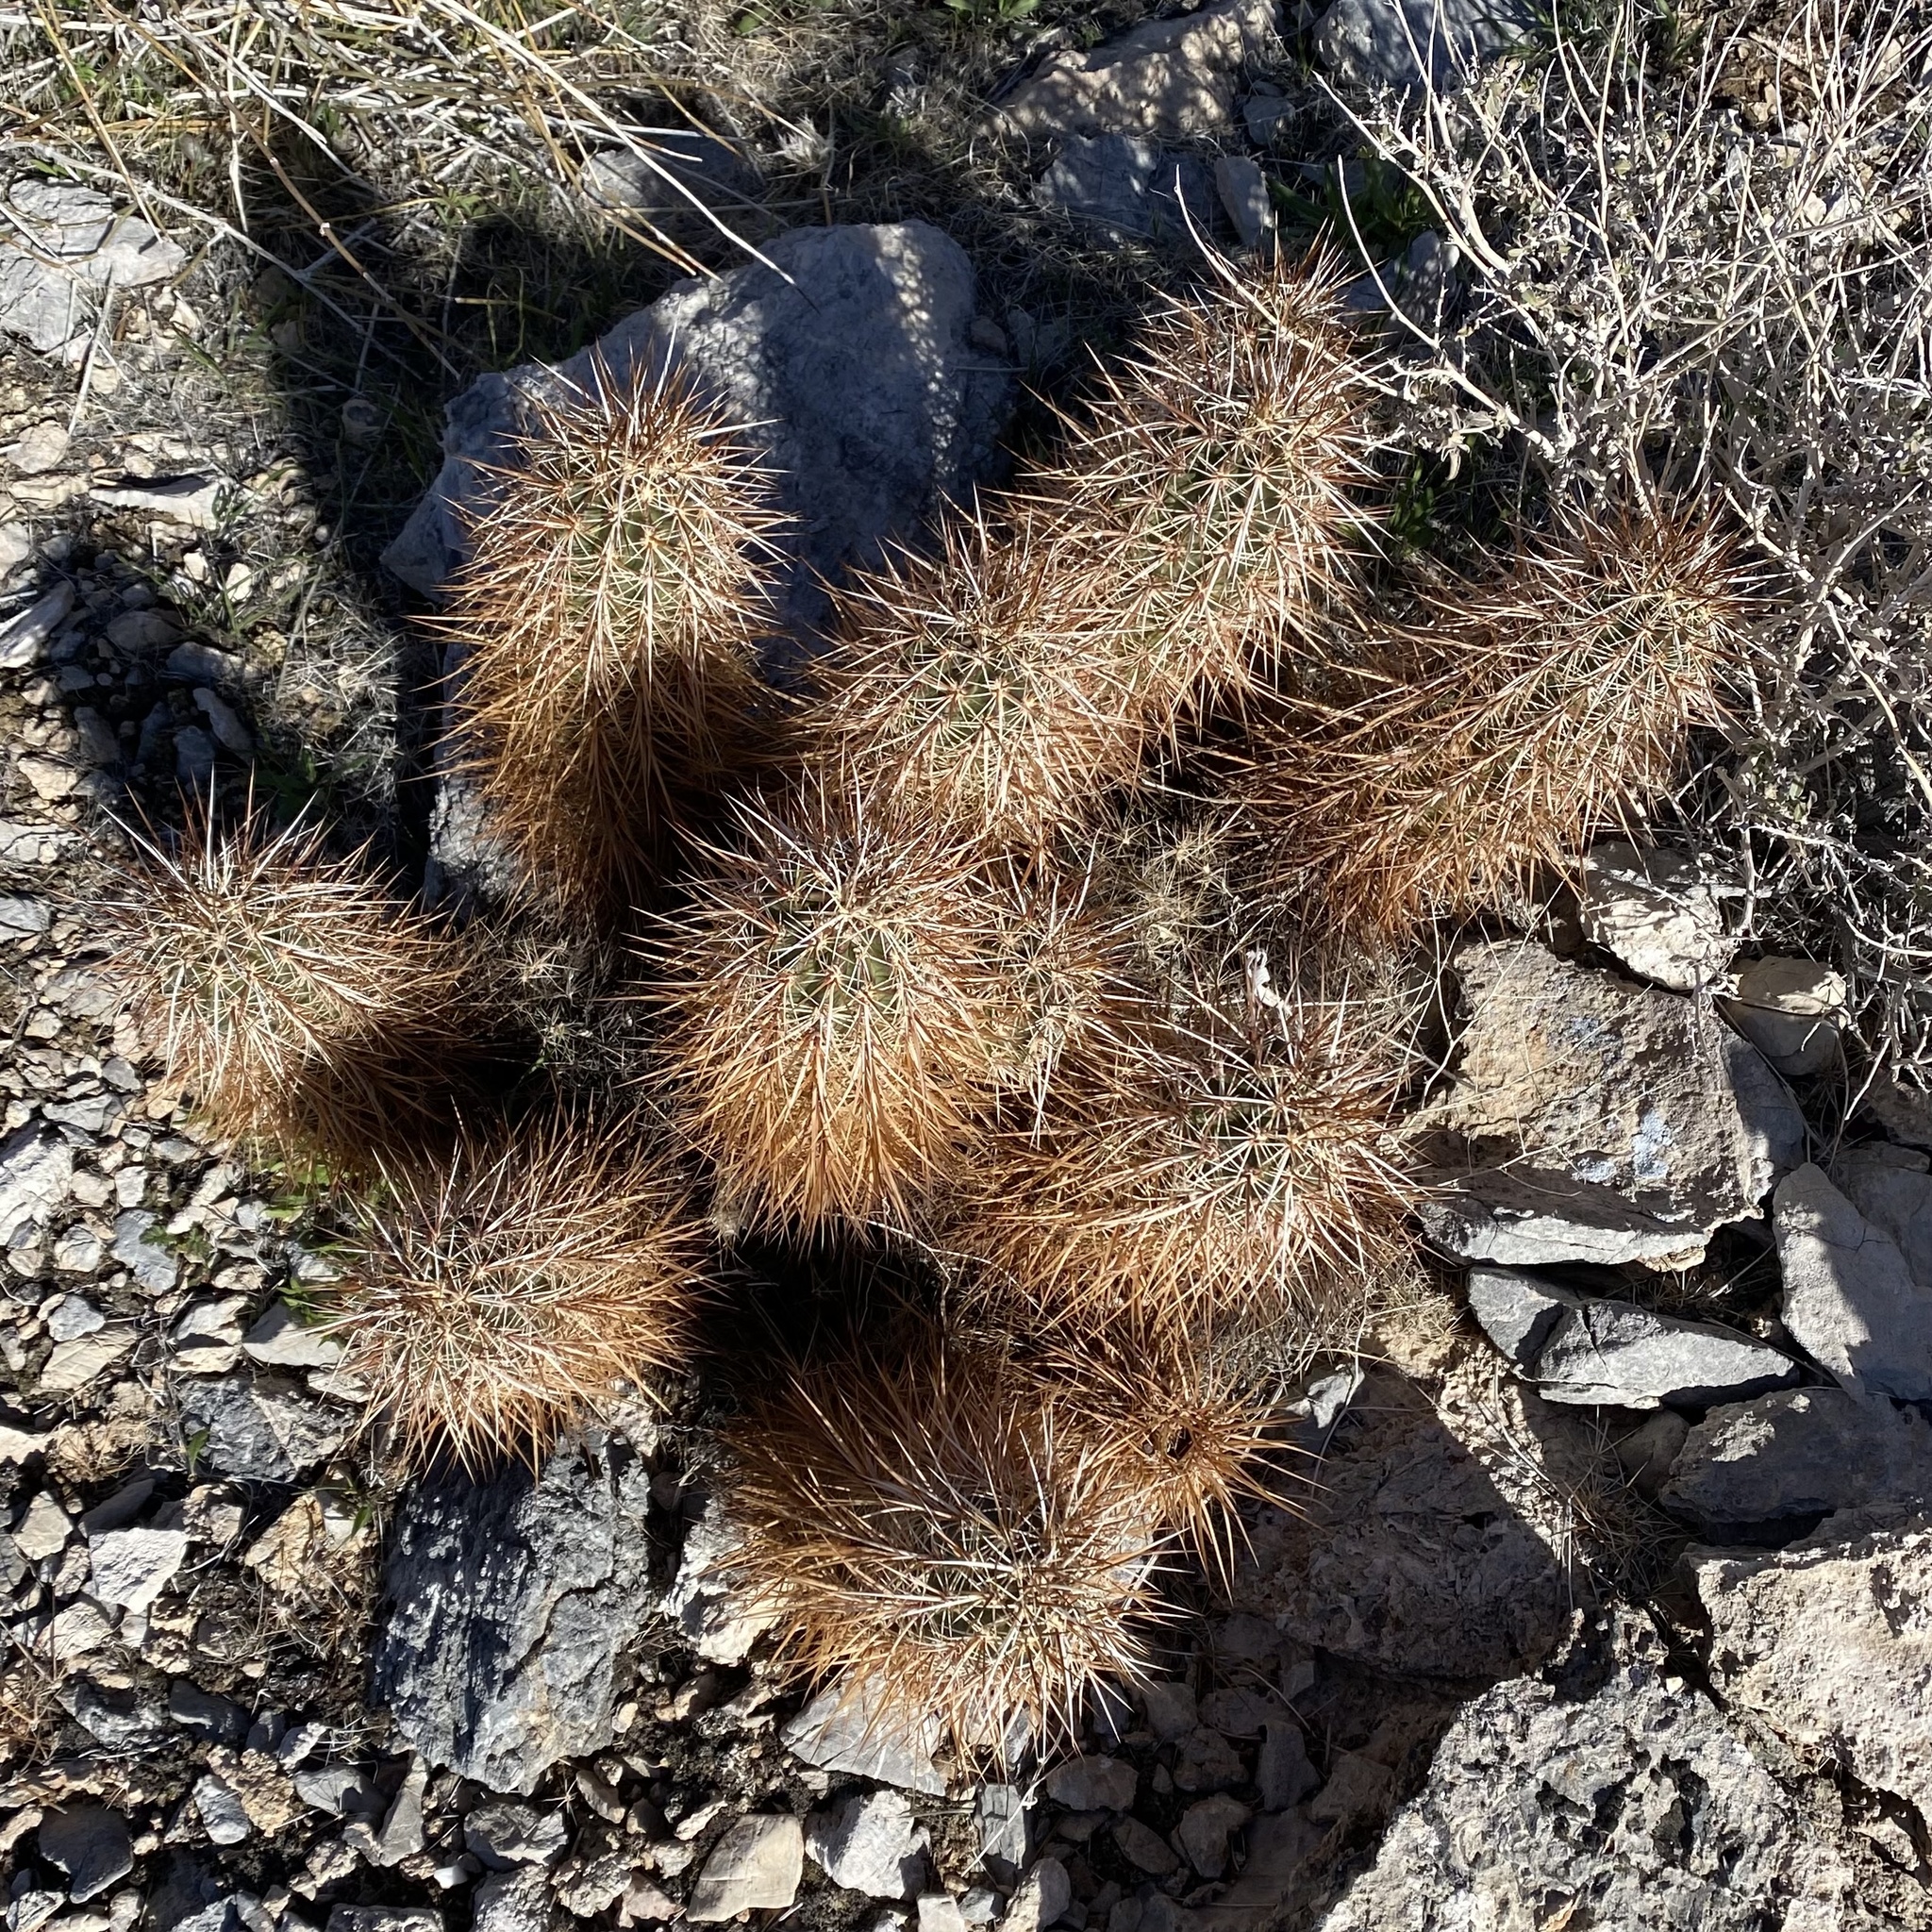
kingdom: Plantae
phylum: Tracheophyta
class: Magnoliopsida
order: Caryophyllales
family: Cactaceae
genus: Echinocereus
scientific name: Echinocereus engelmannii
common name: Engelmann's hedgehog cactus
